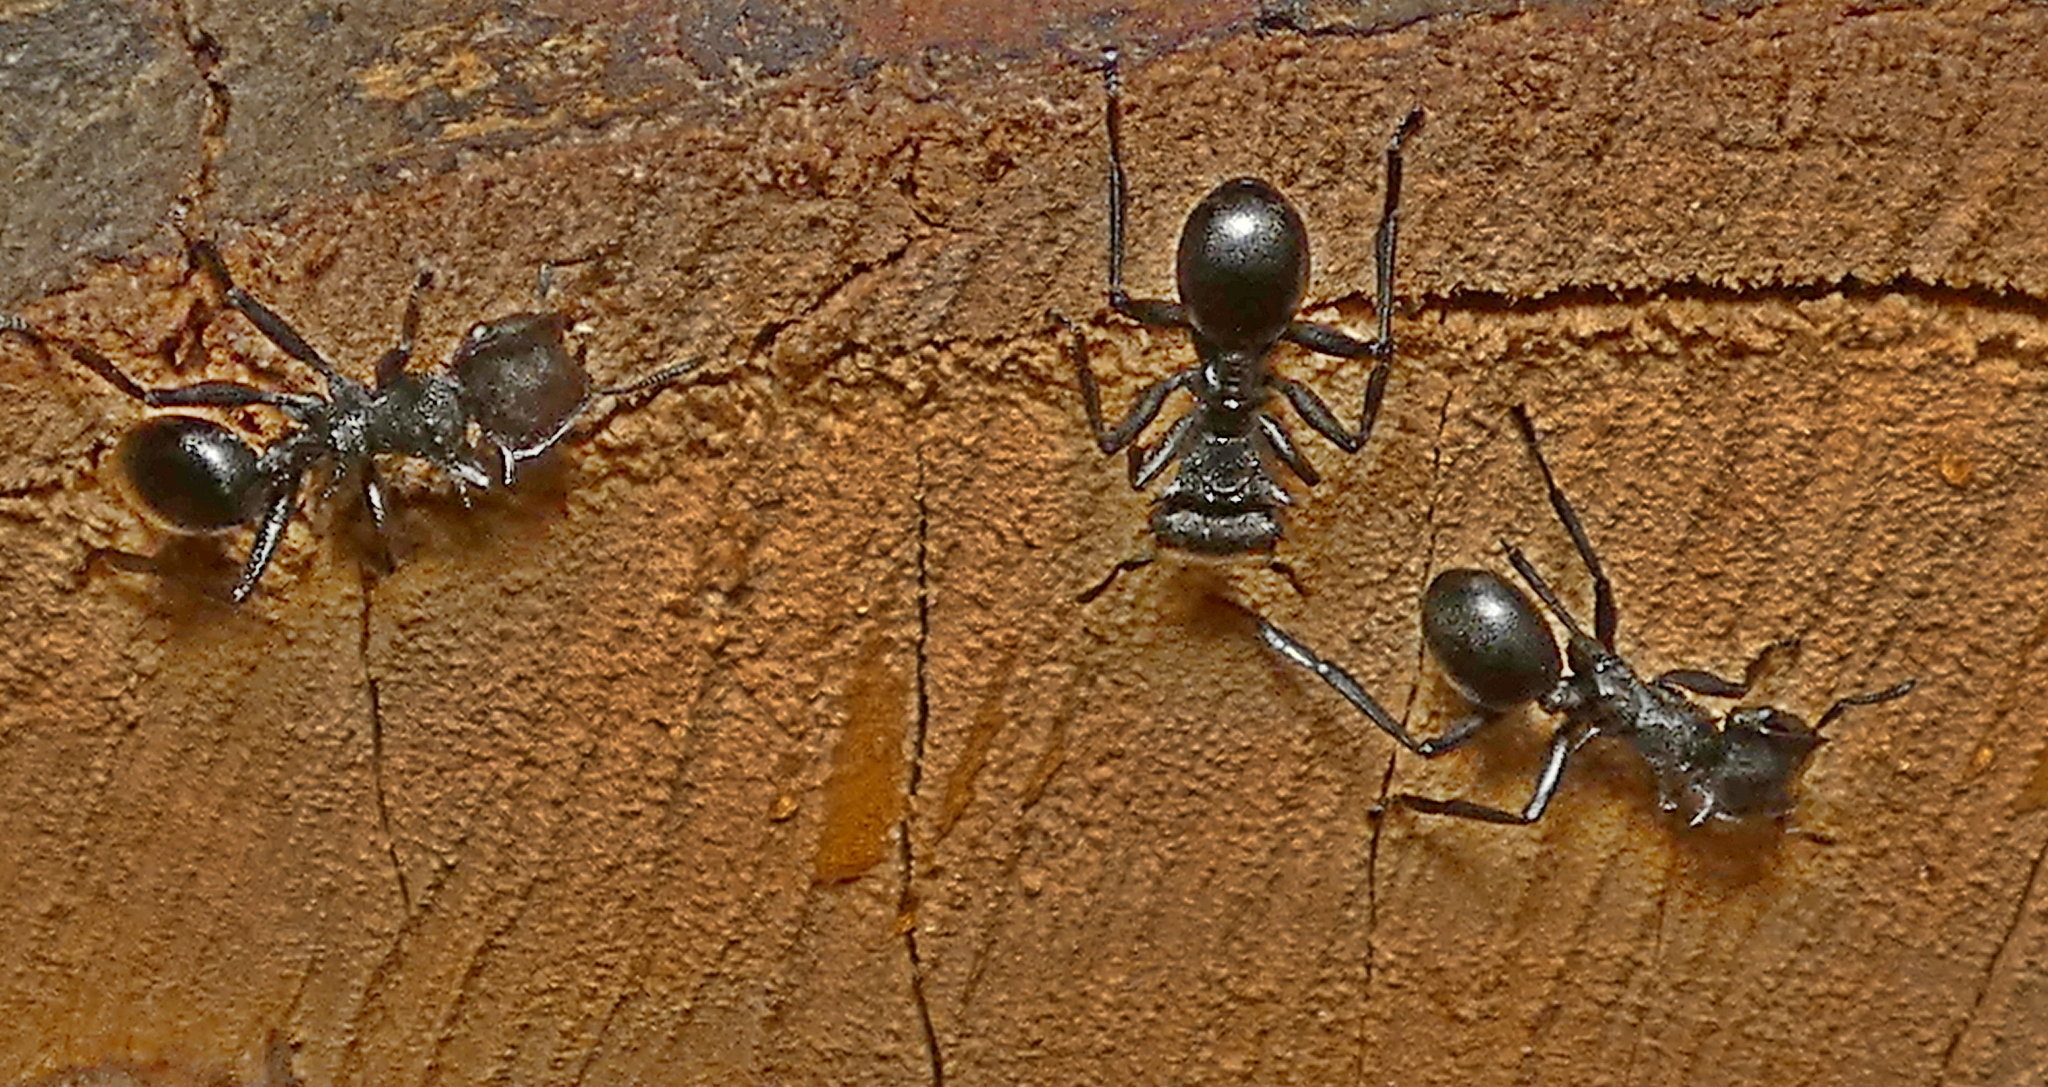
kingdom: Animalia
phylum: Arthropoda
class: Insecta
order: Hymenoptera
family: Formicidae
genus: Cephalotes
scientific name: Cephalotes atratus
